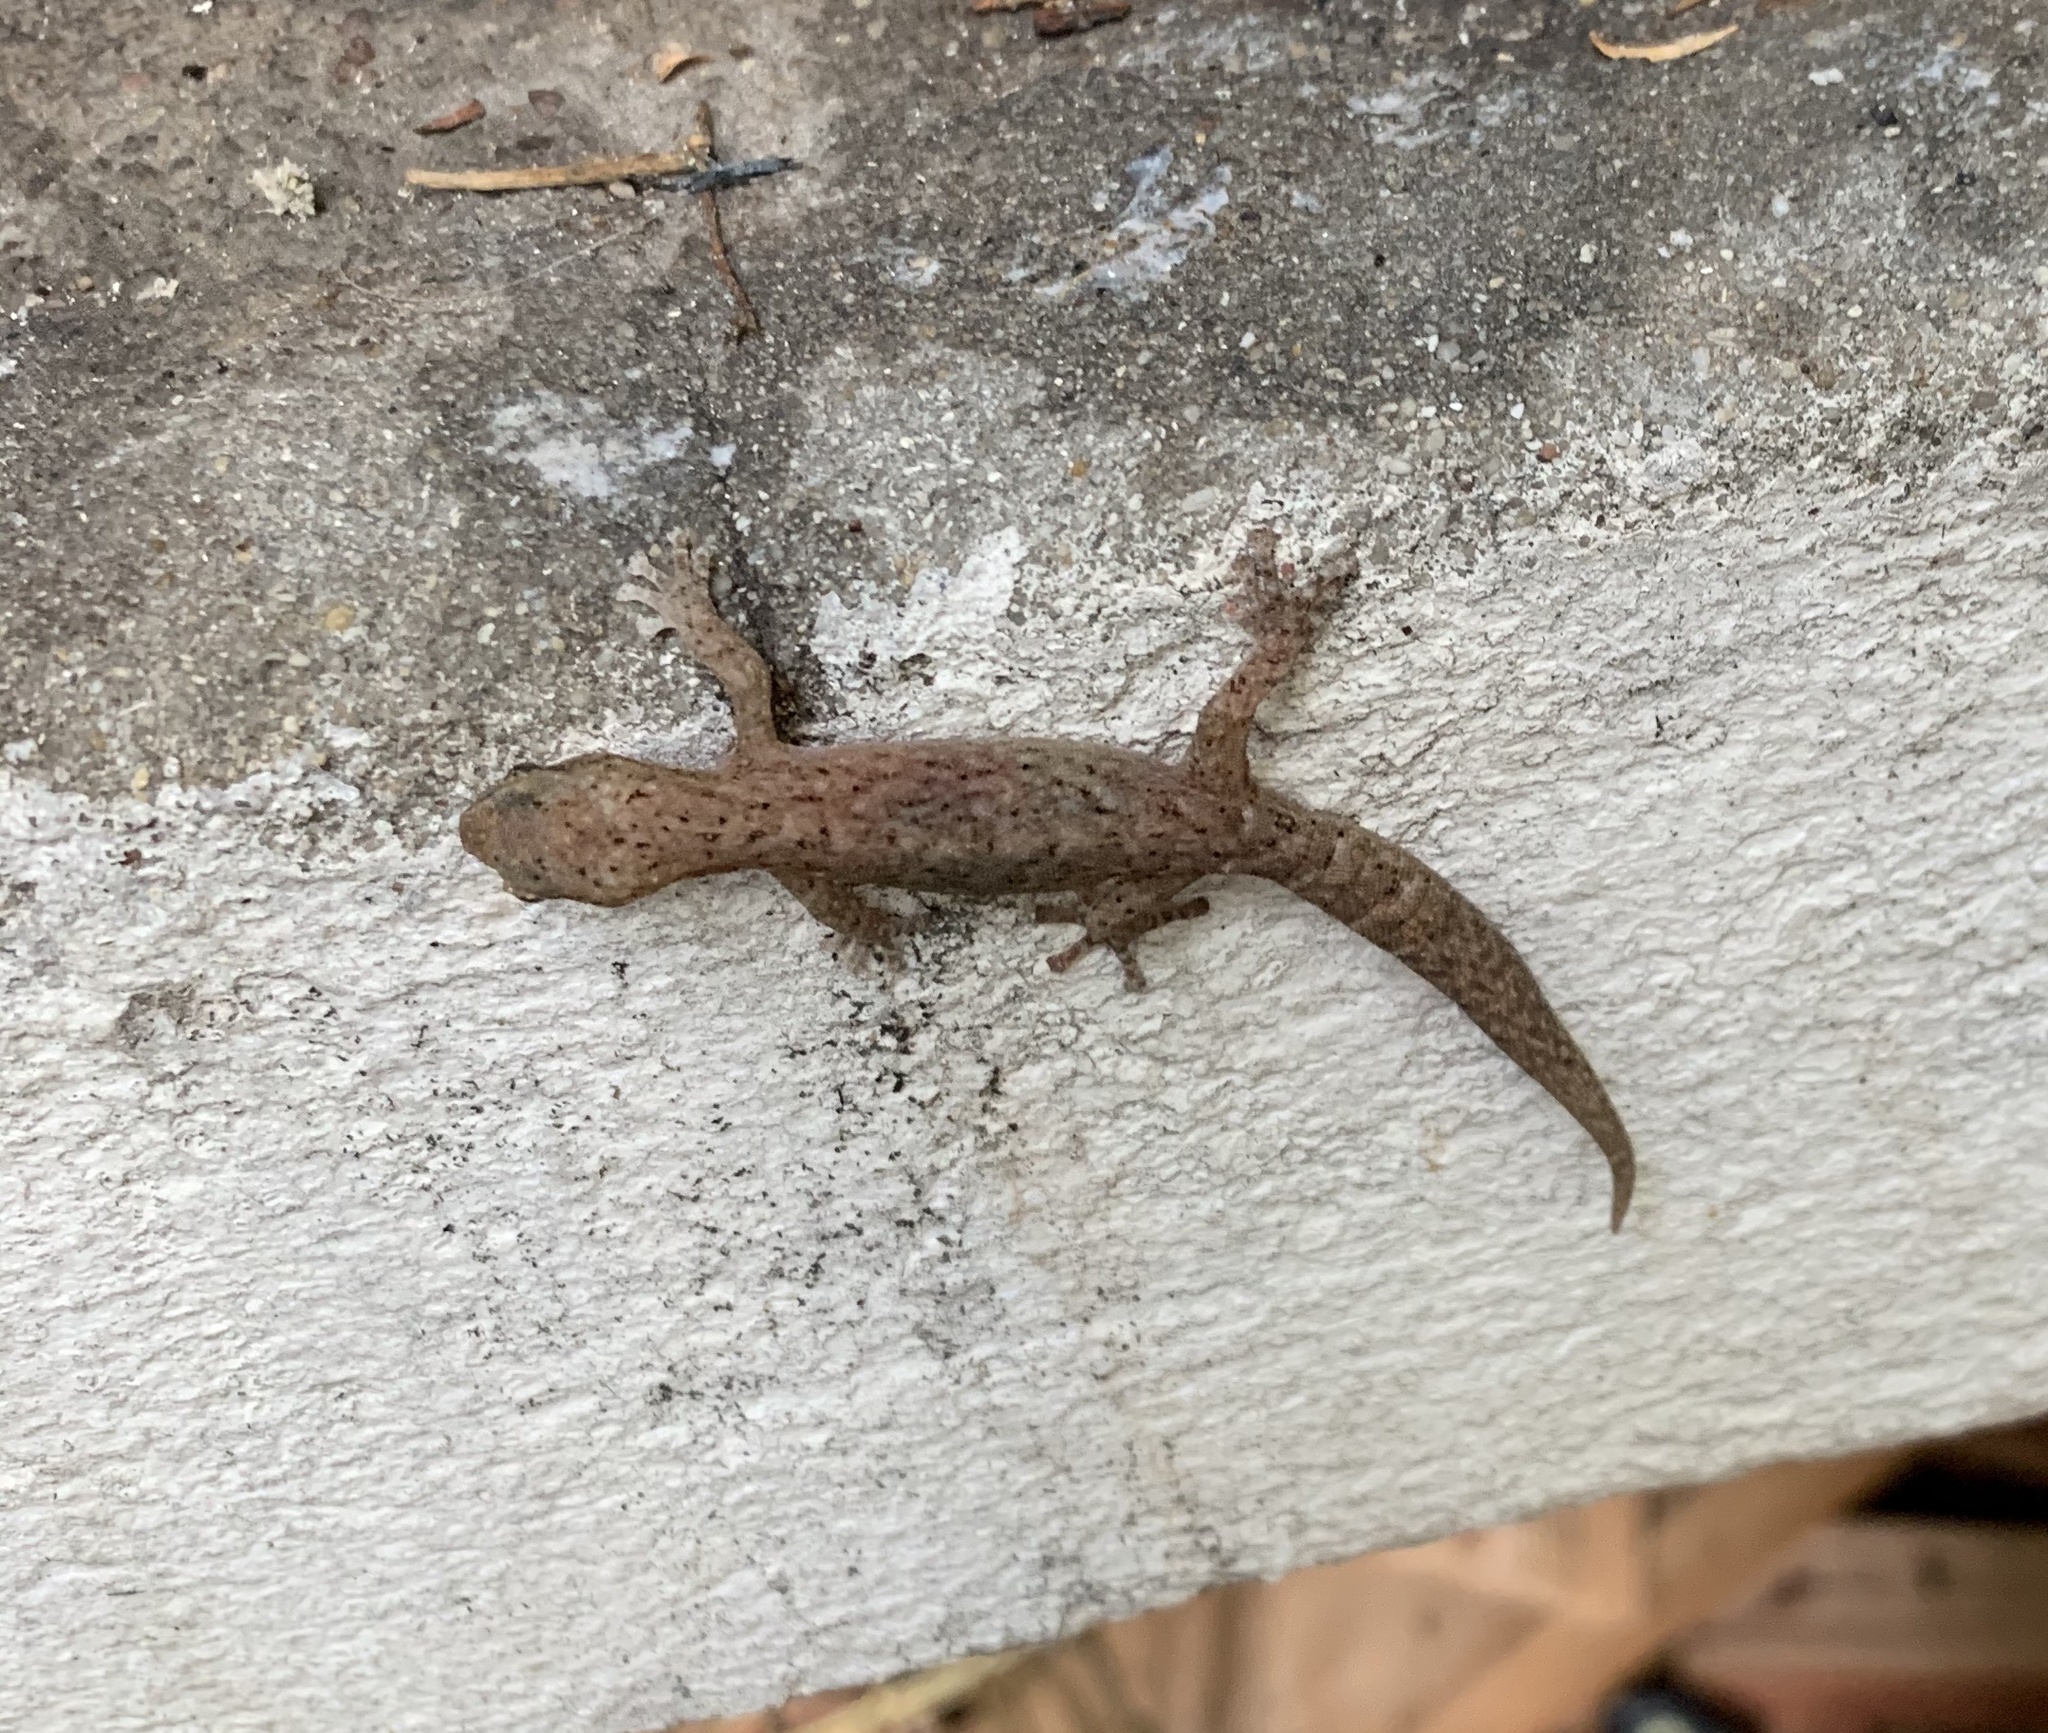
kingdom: Animalia
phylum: Chordata
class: Squamata
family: Gekkonidae
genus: Afrogecko
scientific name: Afrogecko porphyreus
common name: Marbled leaf-toed gecko
